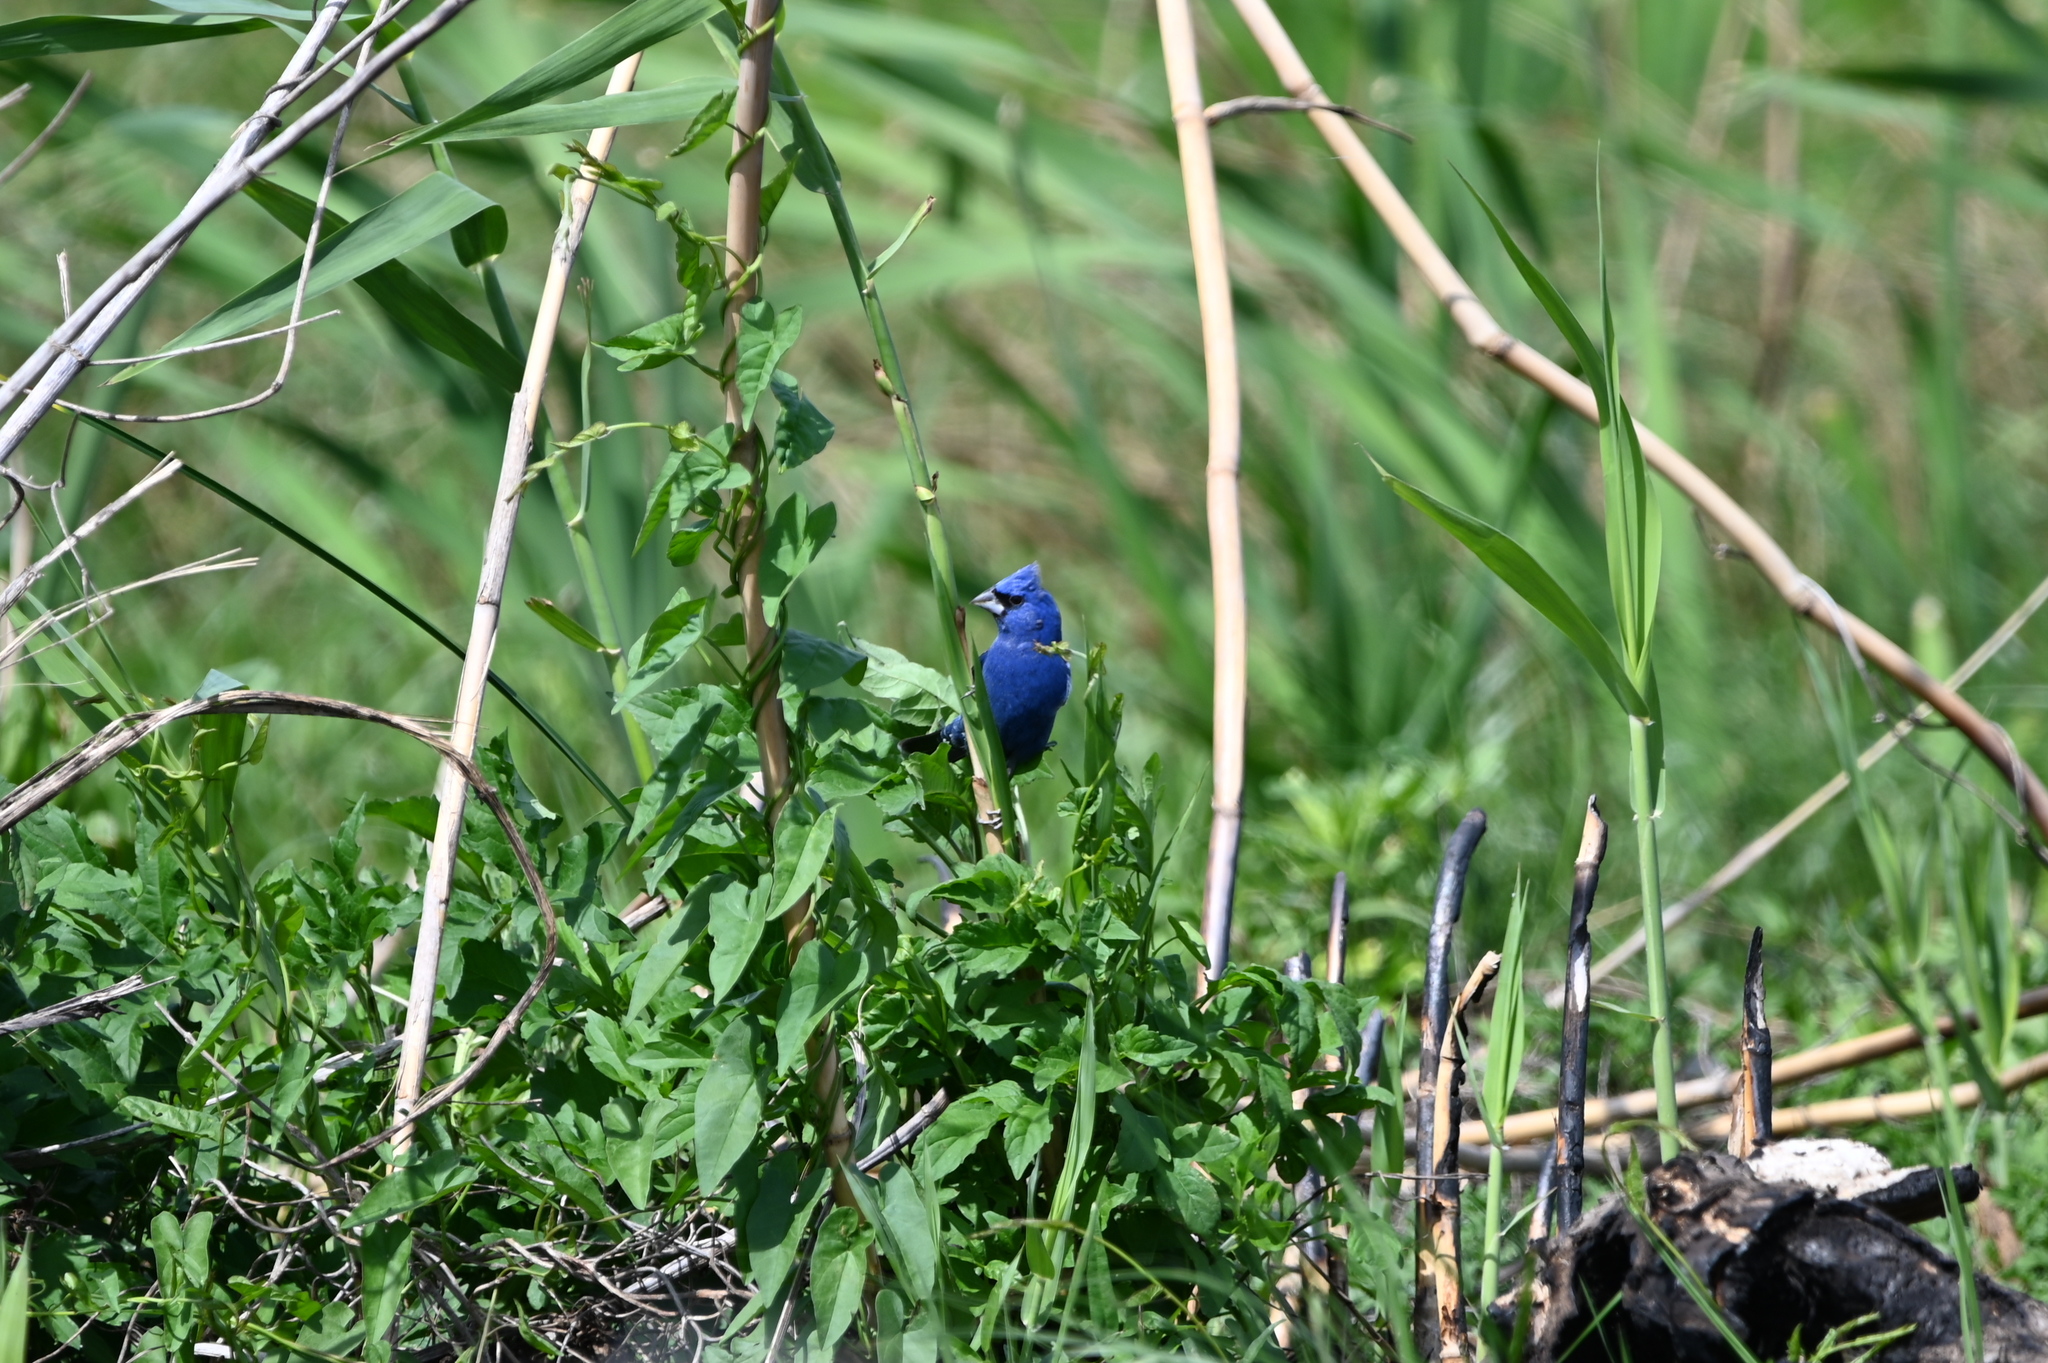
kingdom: Animalia
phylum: Chordata
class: Aves
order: Passeriformes
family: Cardinalidae
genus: Passerina
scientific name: Passerina caerulea
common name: Blue grosbeak
